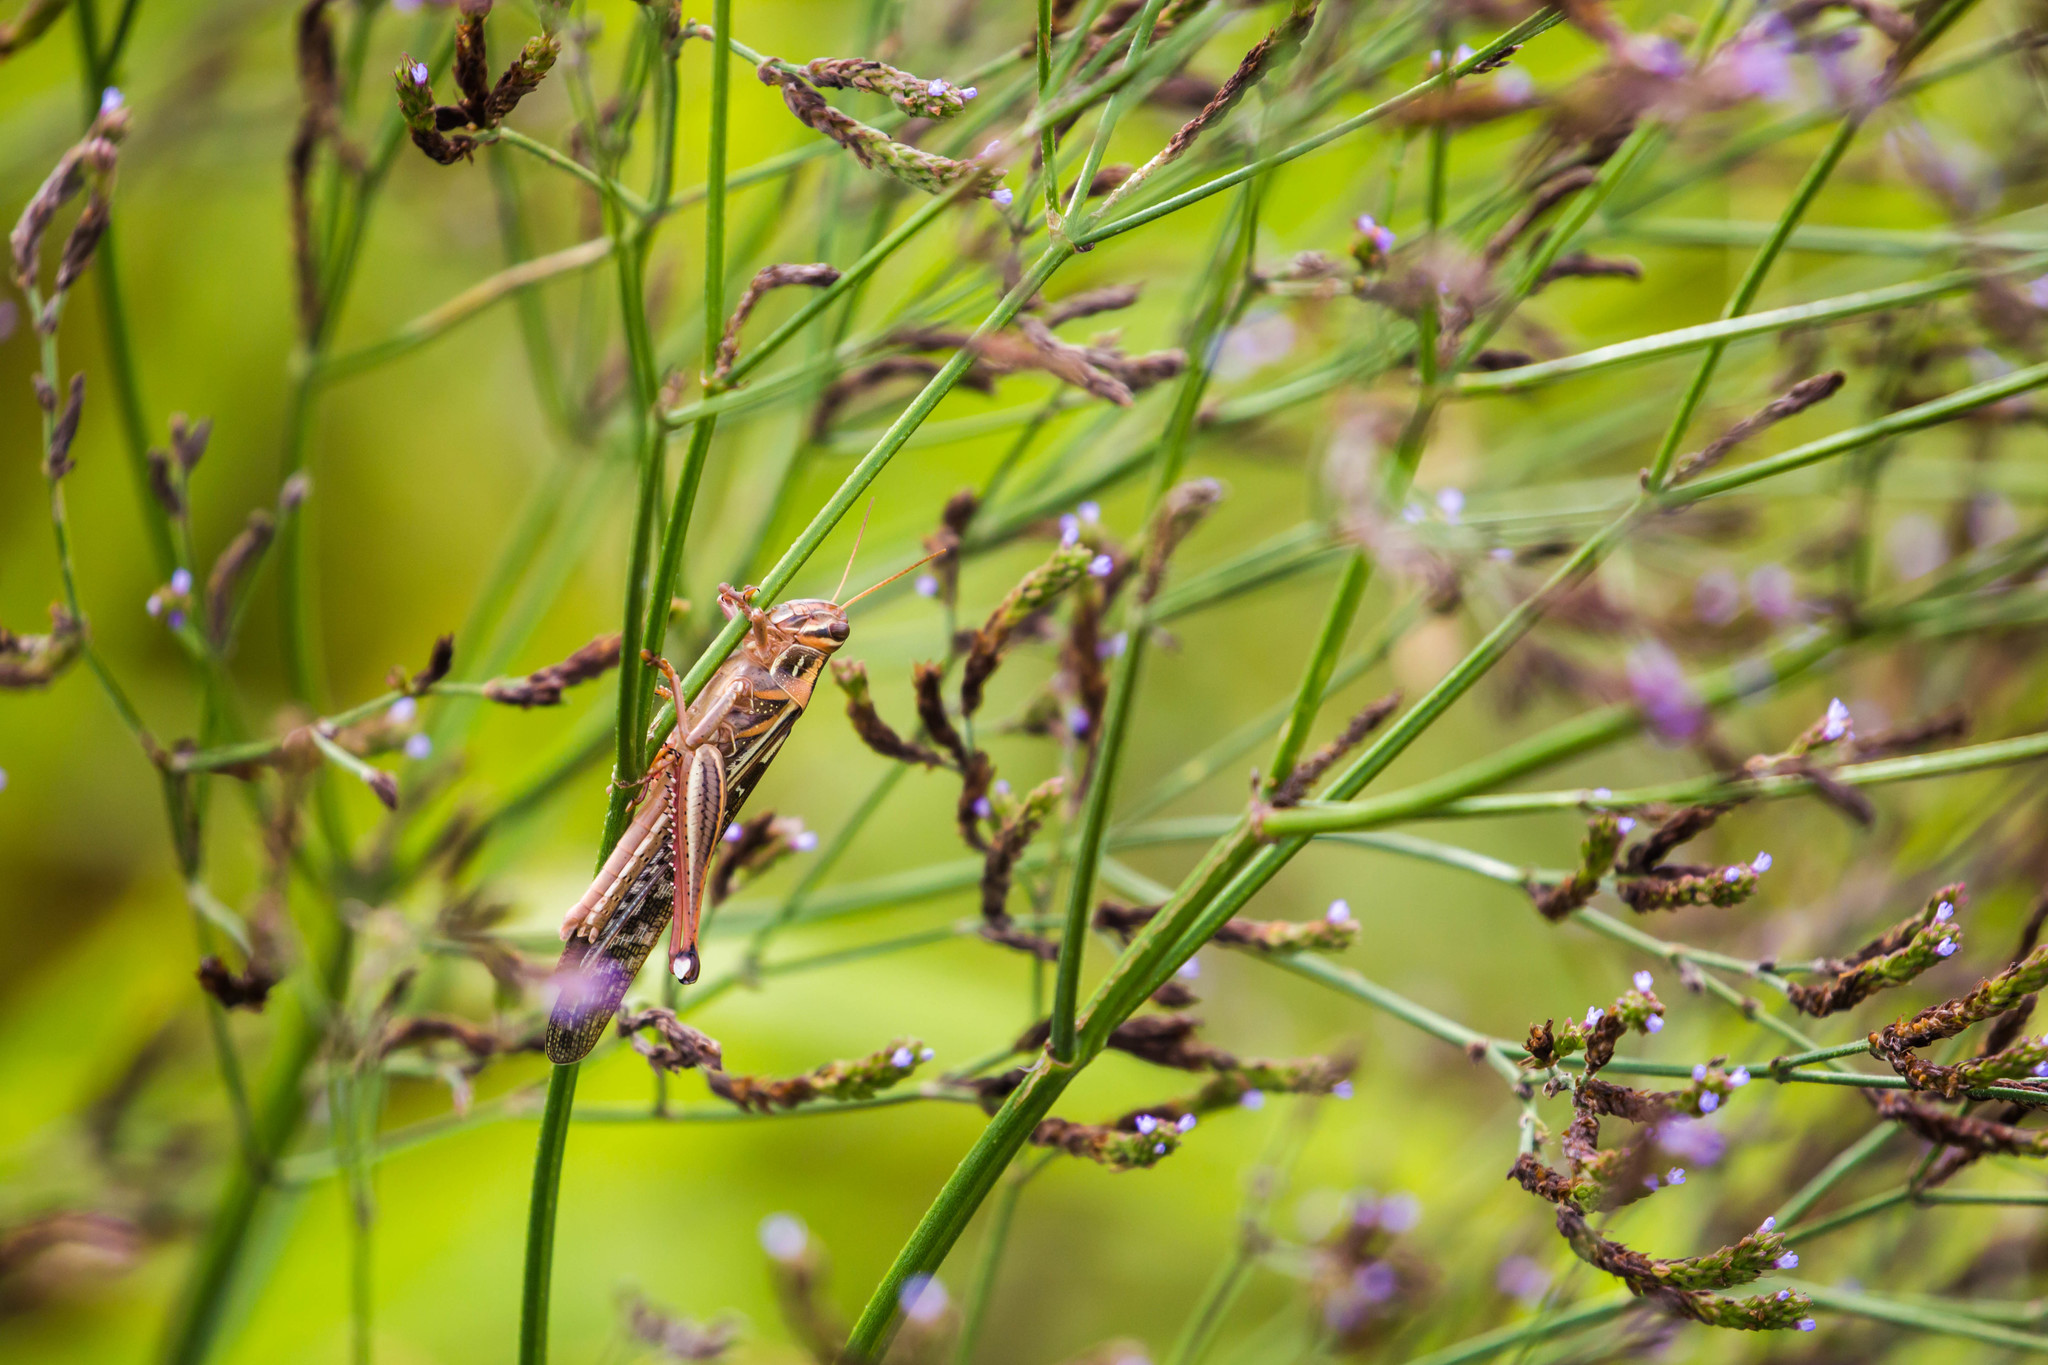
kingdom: Animalia
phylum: Arthropoda
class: Insecta
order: Orthoptera
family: Acrididae
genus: Schistocerca
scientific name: Schistocerca americana
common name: American bird locust
